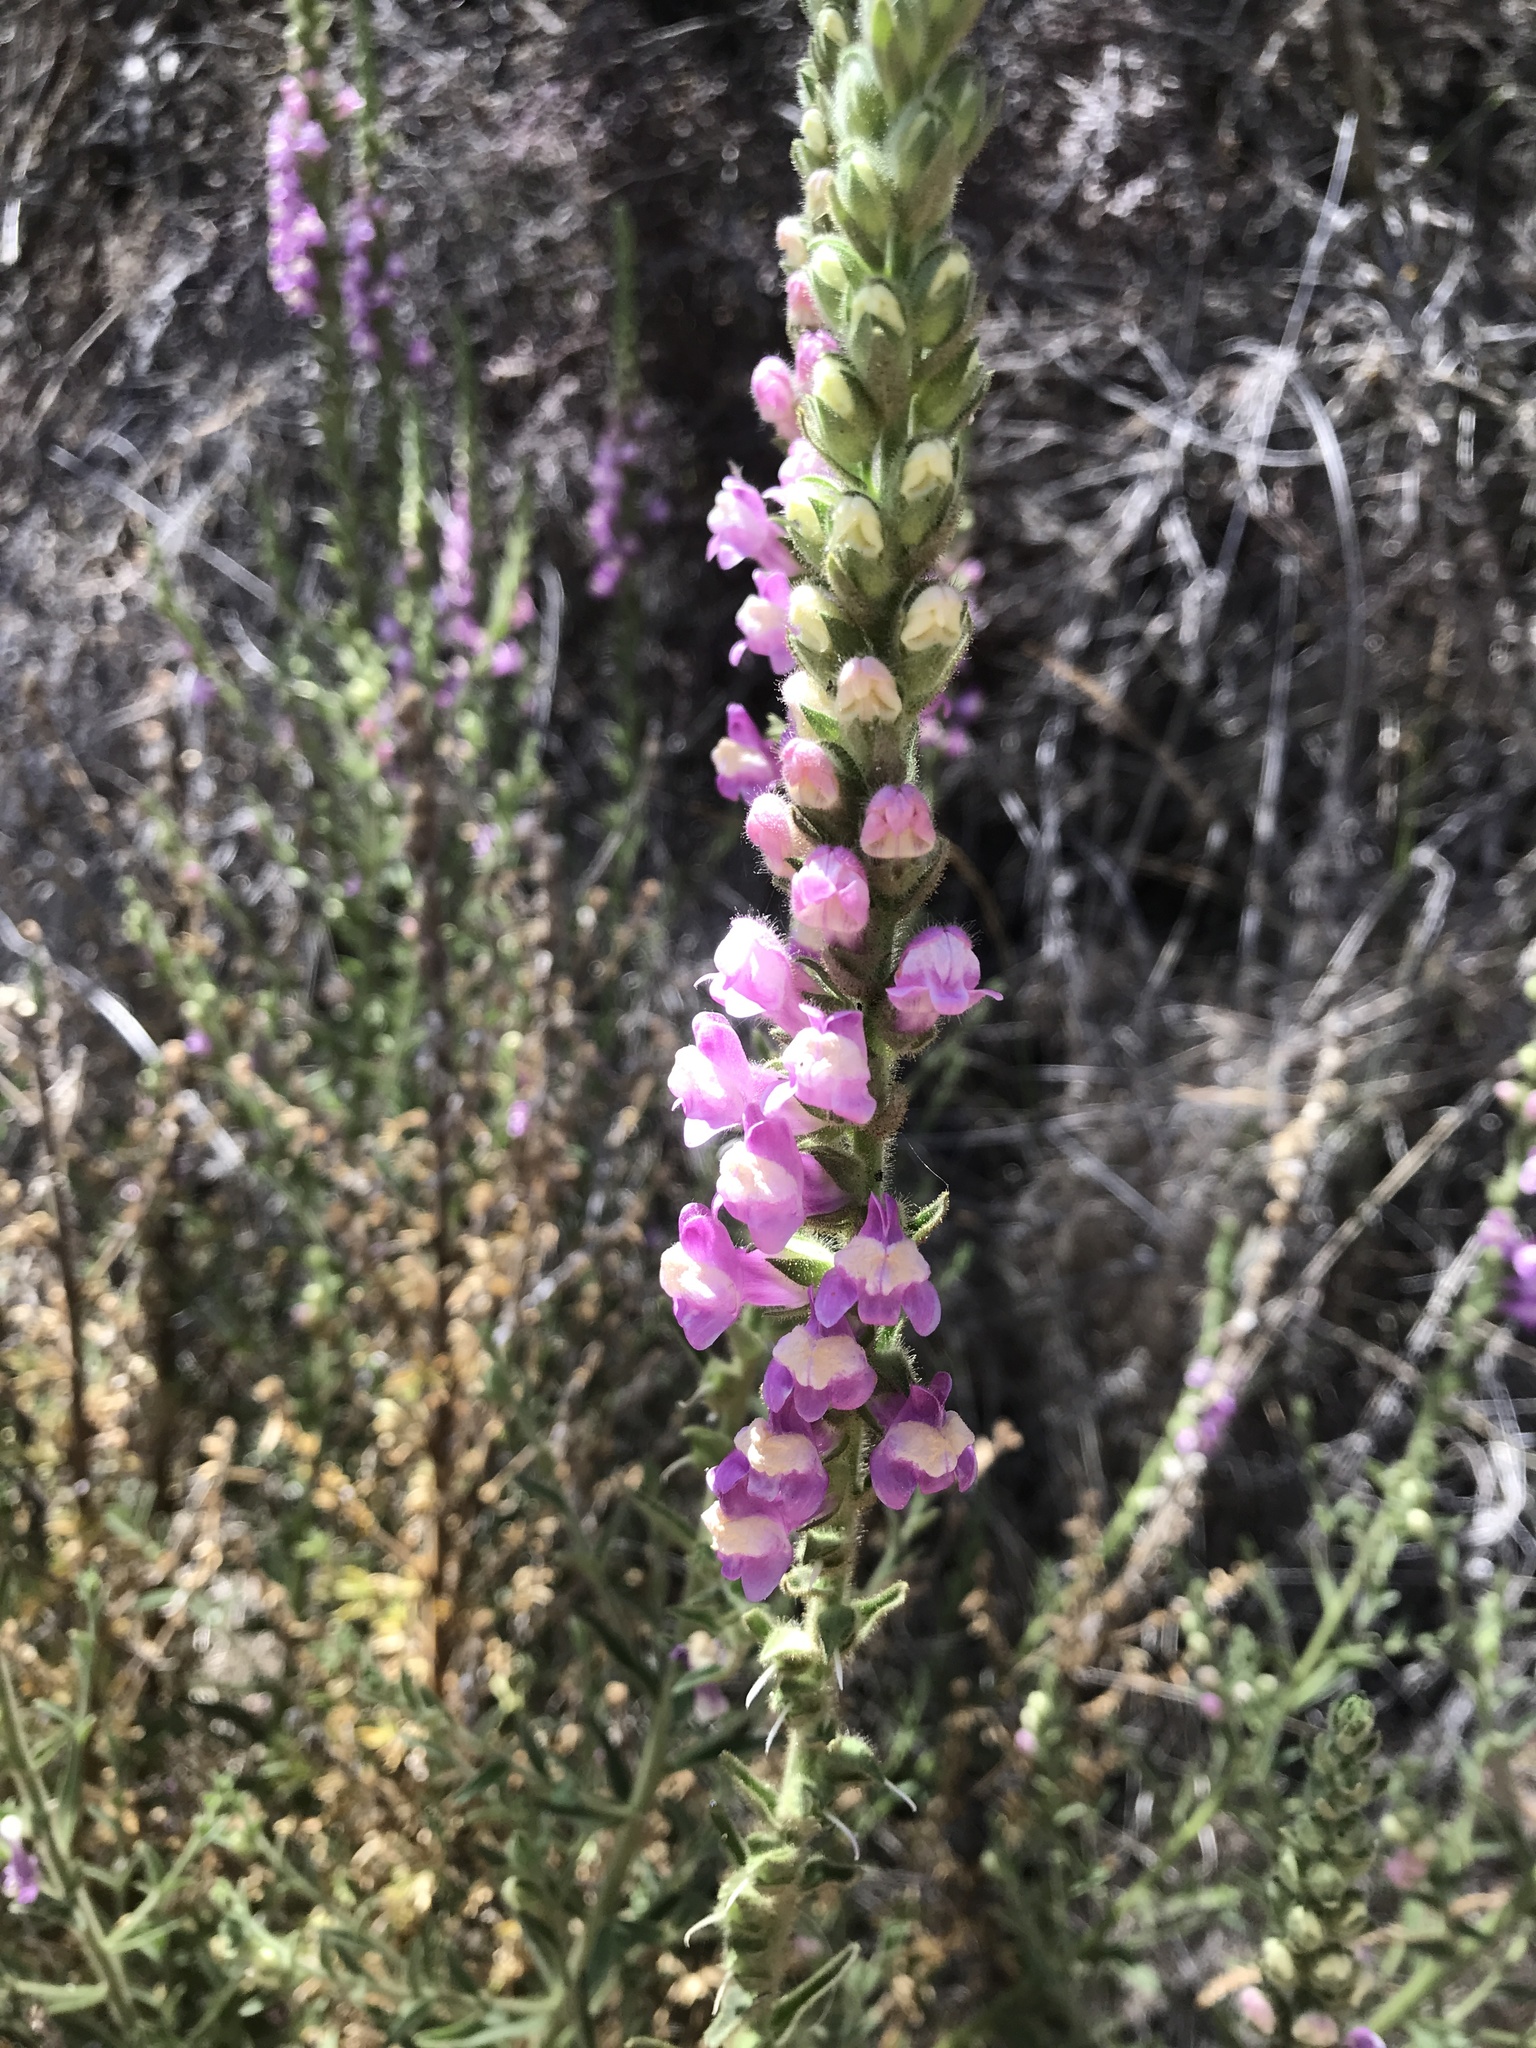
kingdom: Plantae
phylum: Tracheophyta
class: Magnoliopsida
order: Lamiales
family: Plantaginaceae
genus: Sairocarpus
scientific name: Sairocarpus multiflorus
